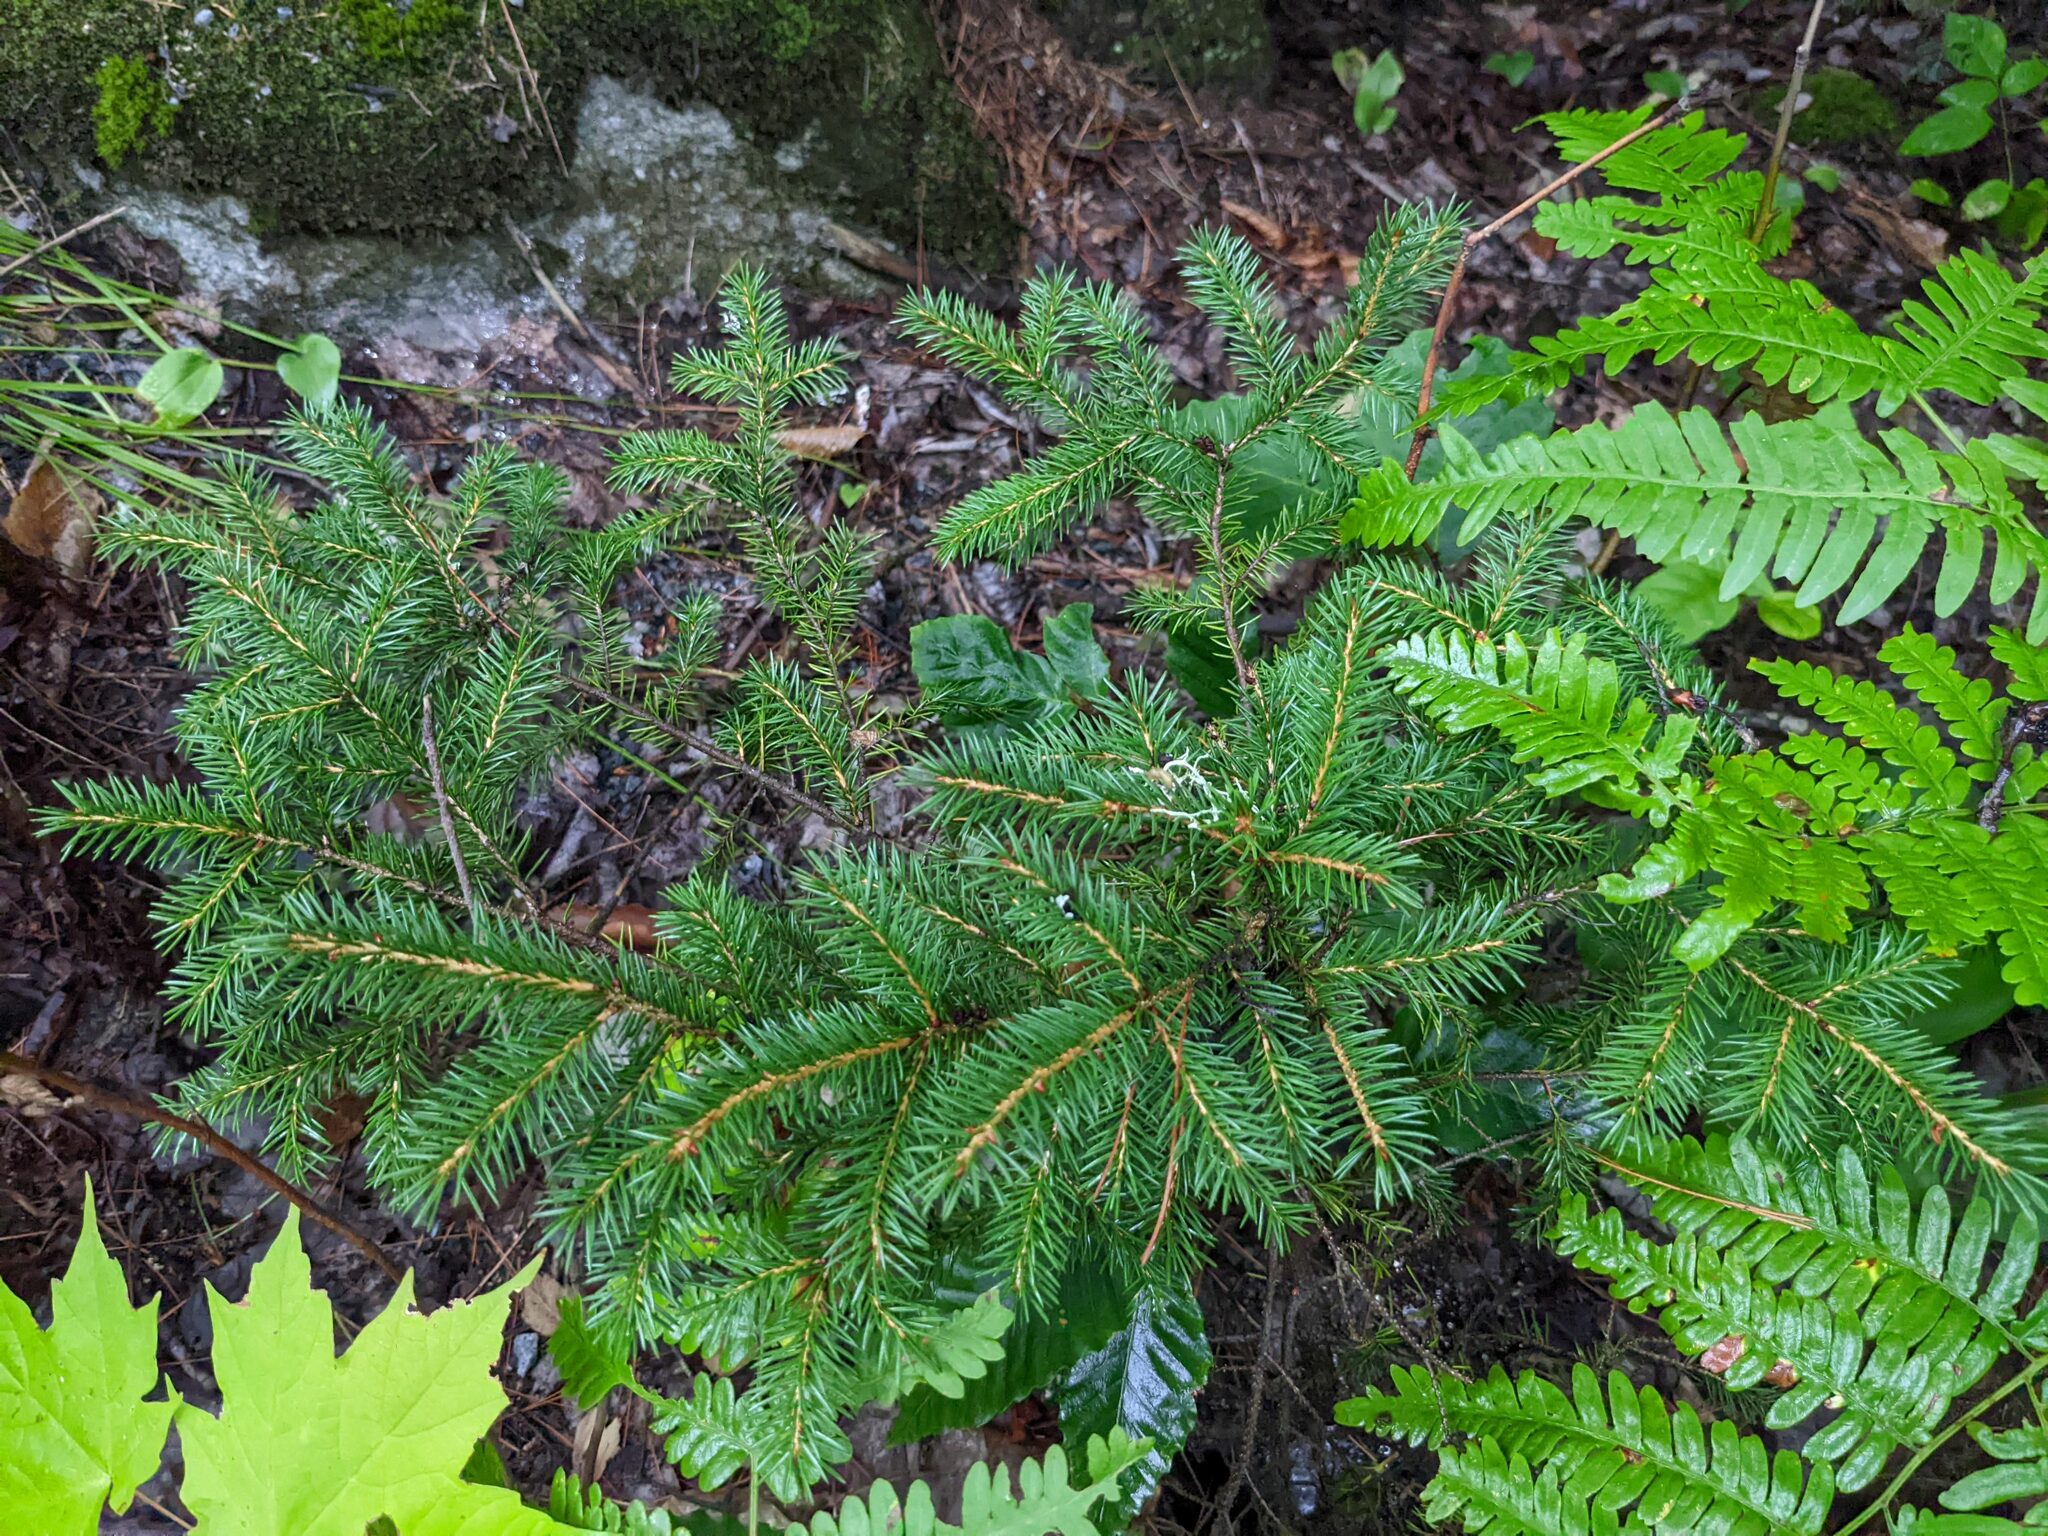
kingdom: Plantae
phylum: Tracheophyta
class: Pinopsida
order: Pinales
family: Pinaceae
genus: Picea
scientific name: Picea rubens
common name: Red spruce
